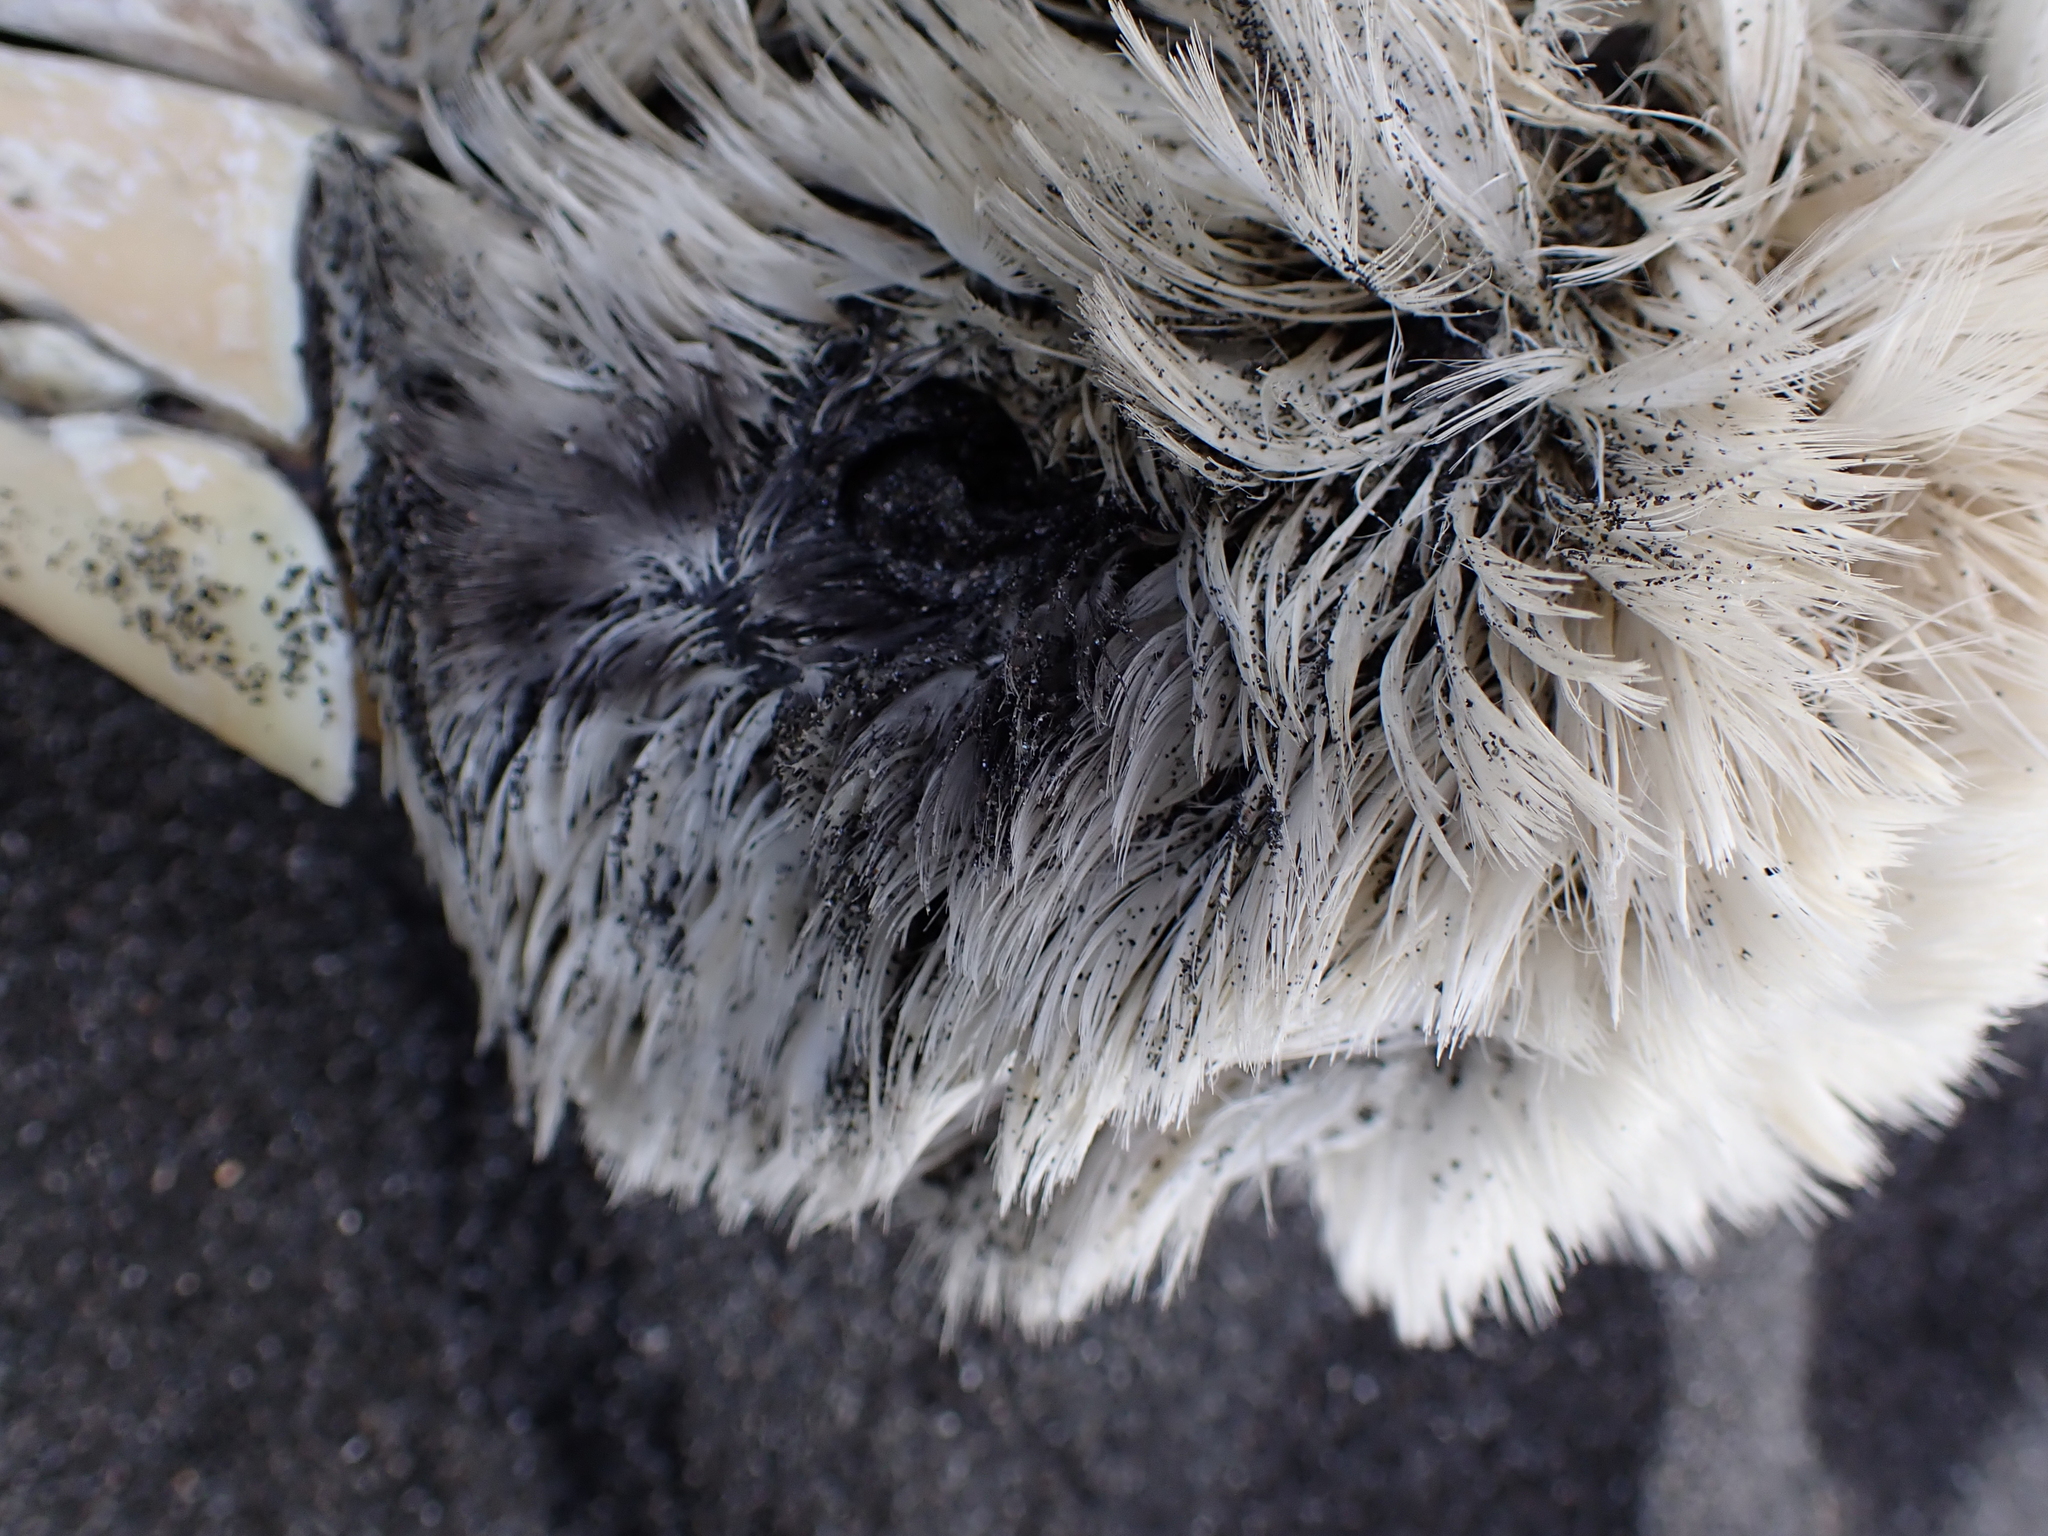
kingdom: Animalia
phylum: Chordata
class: Aves
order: Procellariiformes
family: Diomedeidae
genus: Thalassarche
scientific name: Thalassarche melanophris
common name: Black-browed albatross
